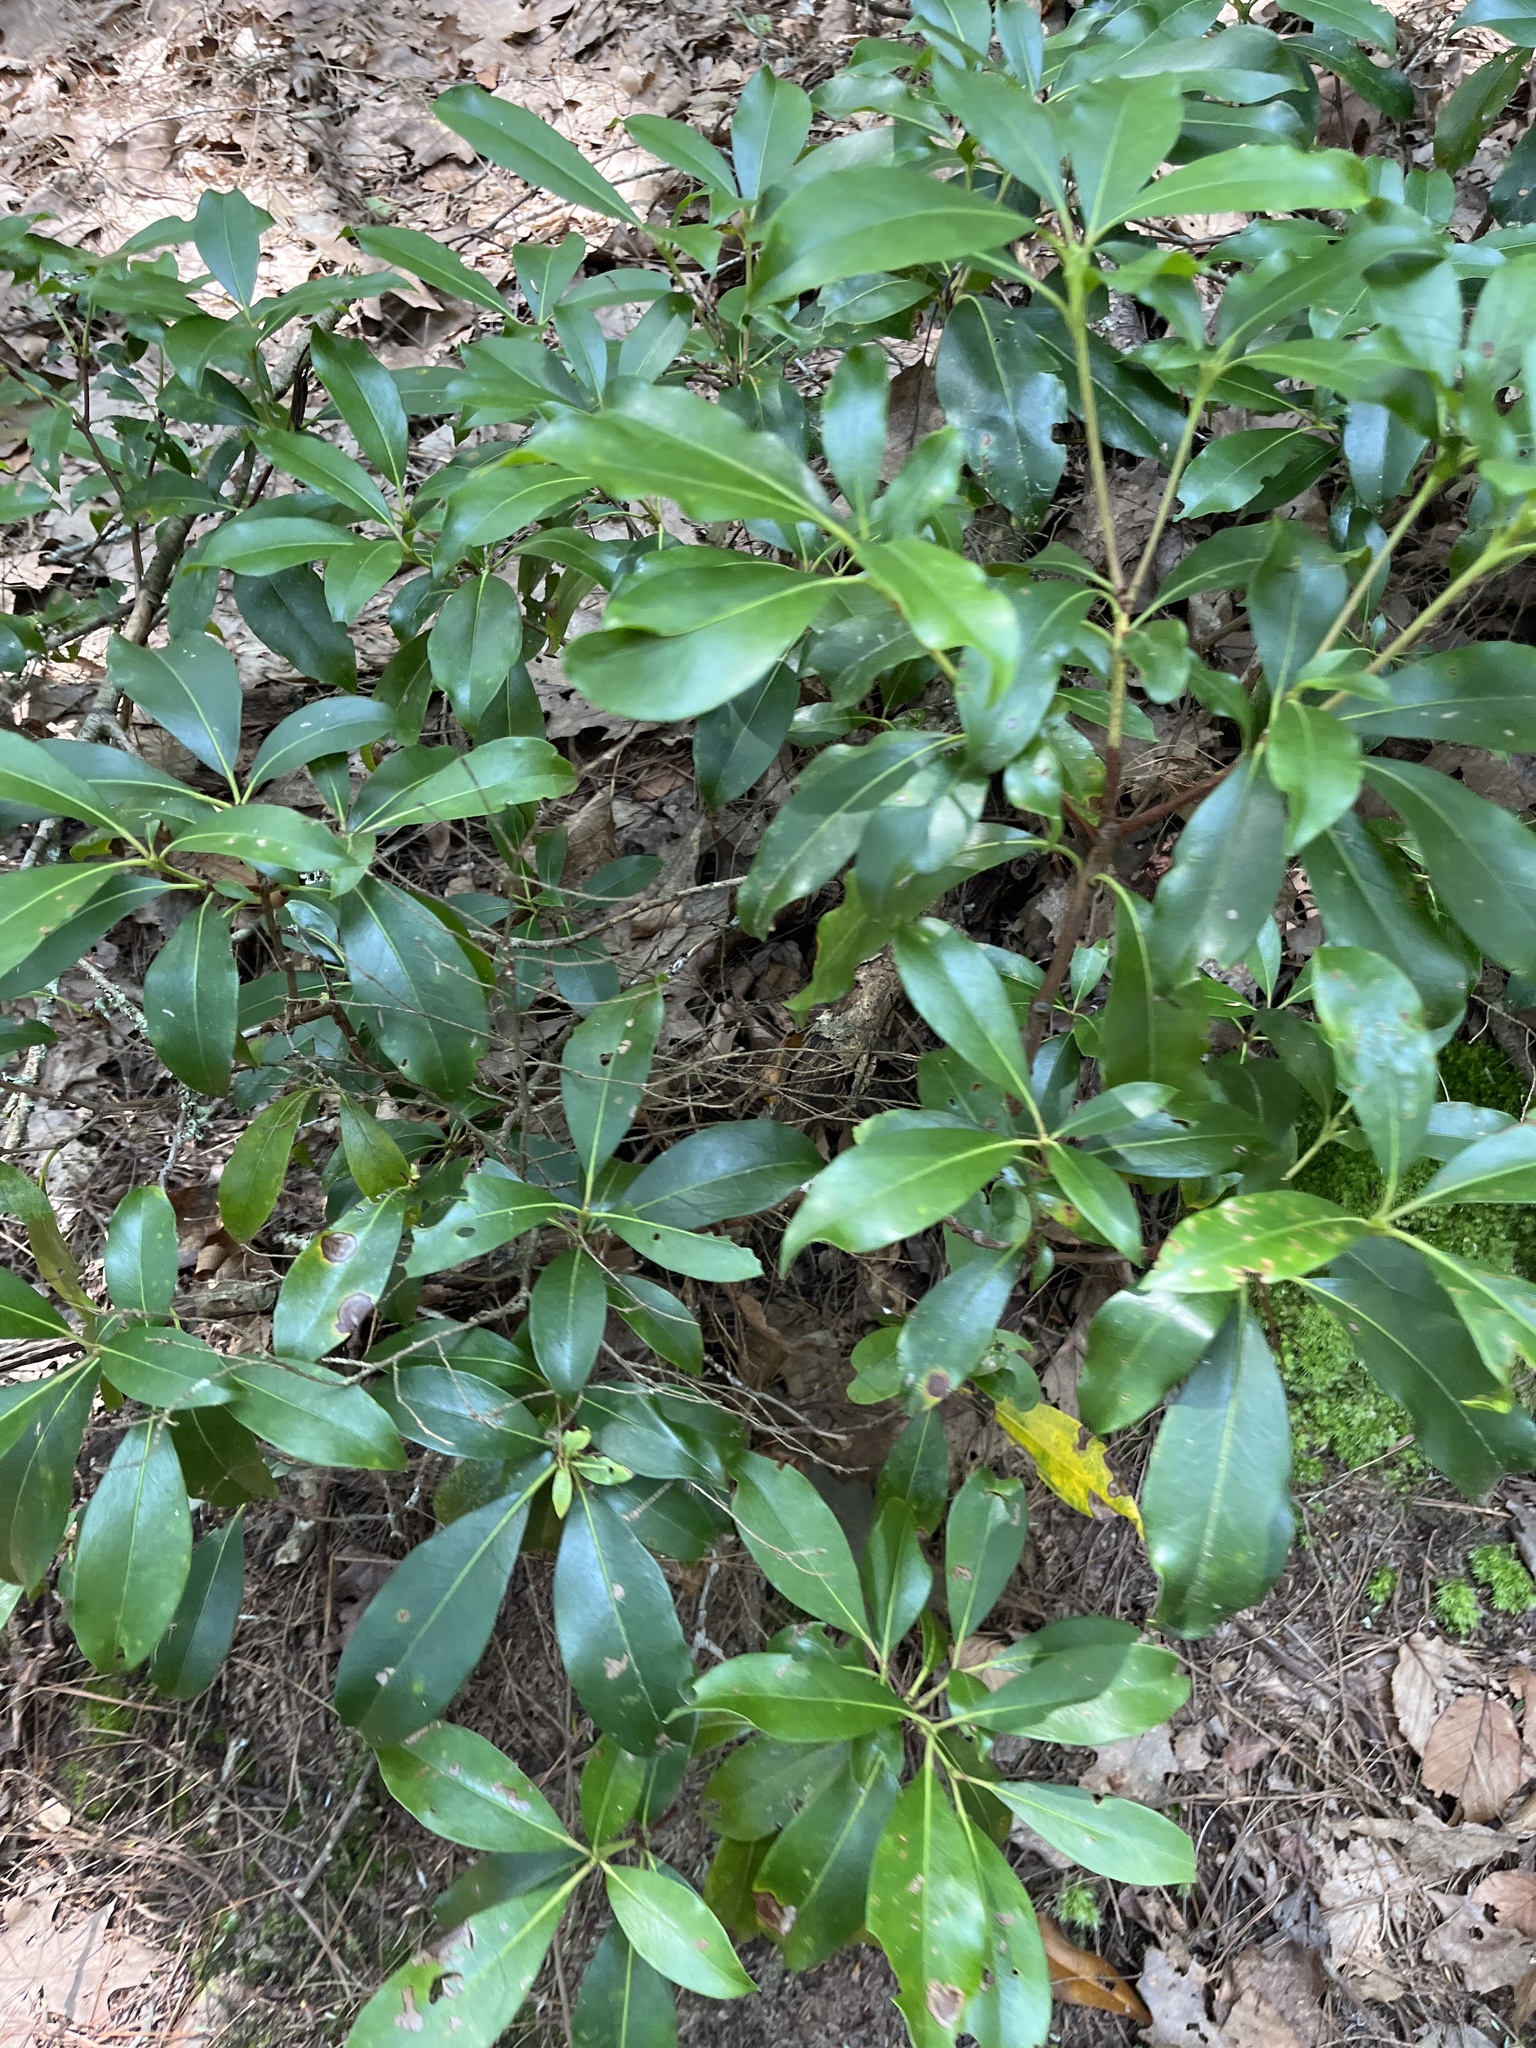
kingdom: Plantae
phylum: Tracheophyta
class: Magnoliopsida
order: Ericales
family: Ericaceae
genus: Kalmia
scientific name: Kalmia latifolia
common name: Mountain-laurel
